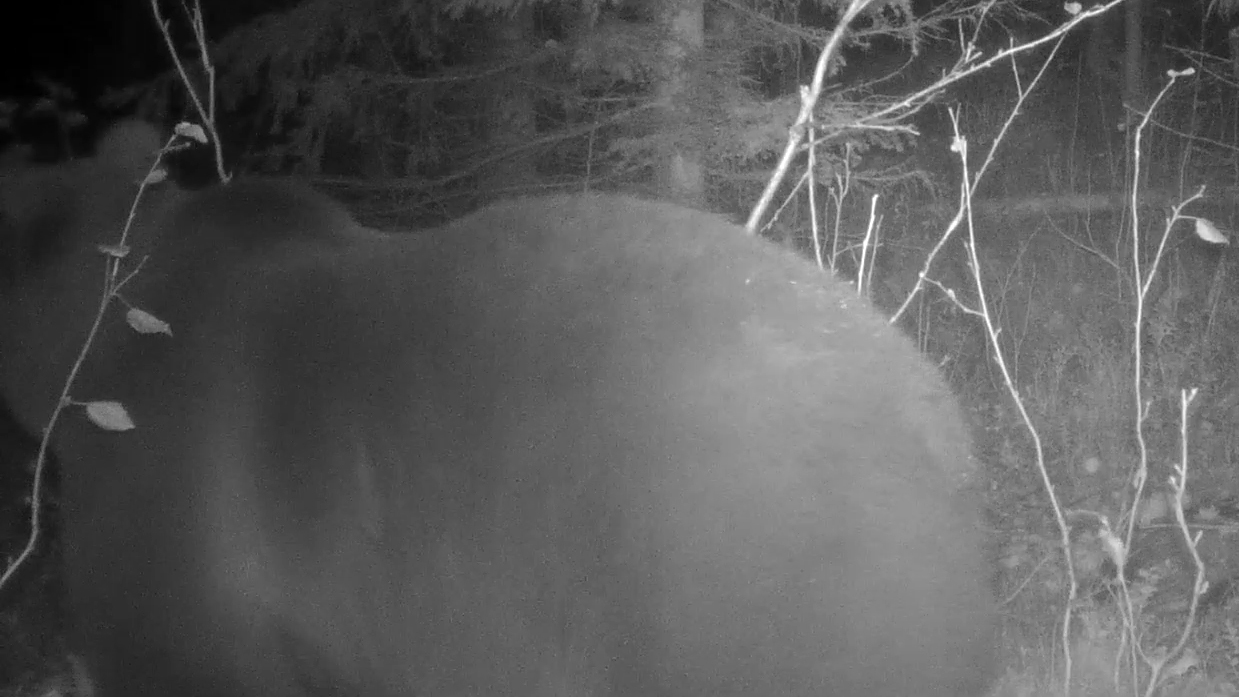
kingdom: Animalia
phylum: Chordata
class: Mammalia
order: Carnivora
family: Ursidae
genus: Ursus
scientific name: Ursus arctos
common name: Brown bear
